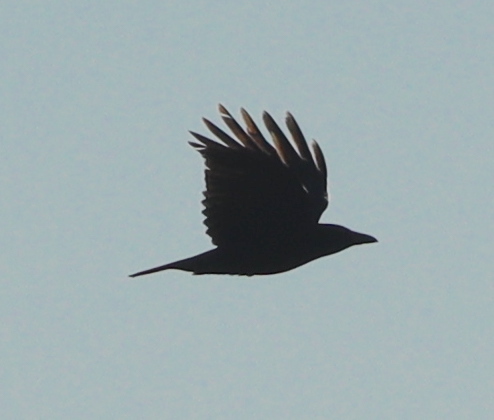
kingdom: Animalia
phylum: Chordata
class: Aves
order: Passeriformes
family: Corvidae
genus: Corvus
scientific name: Corvus corone
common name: Carrion crow
